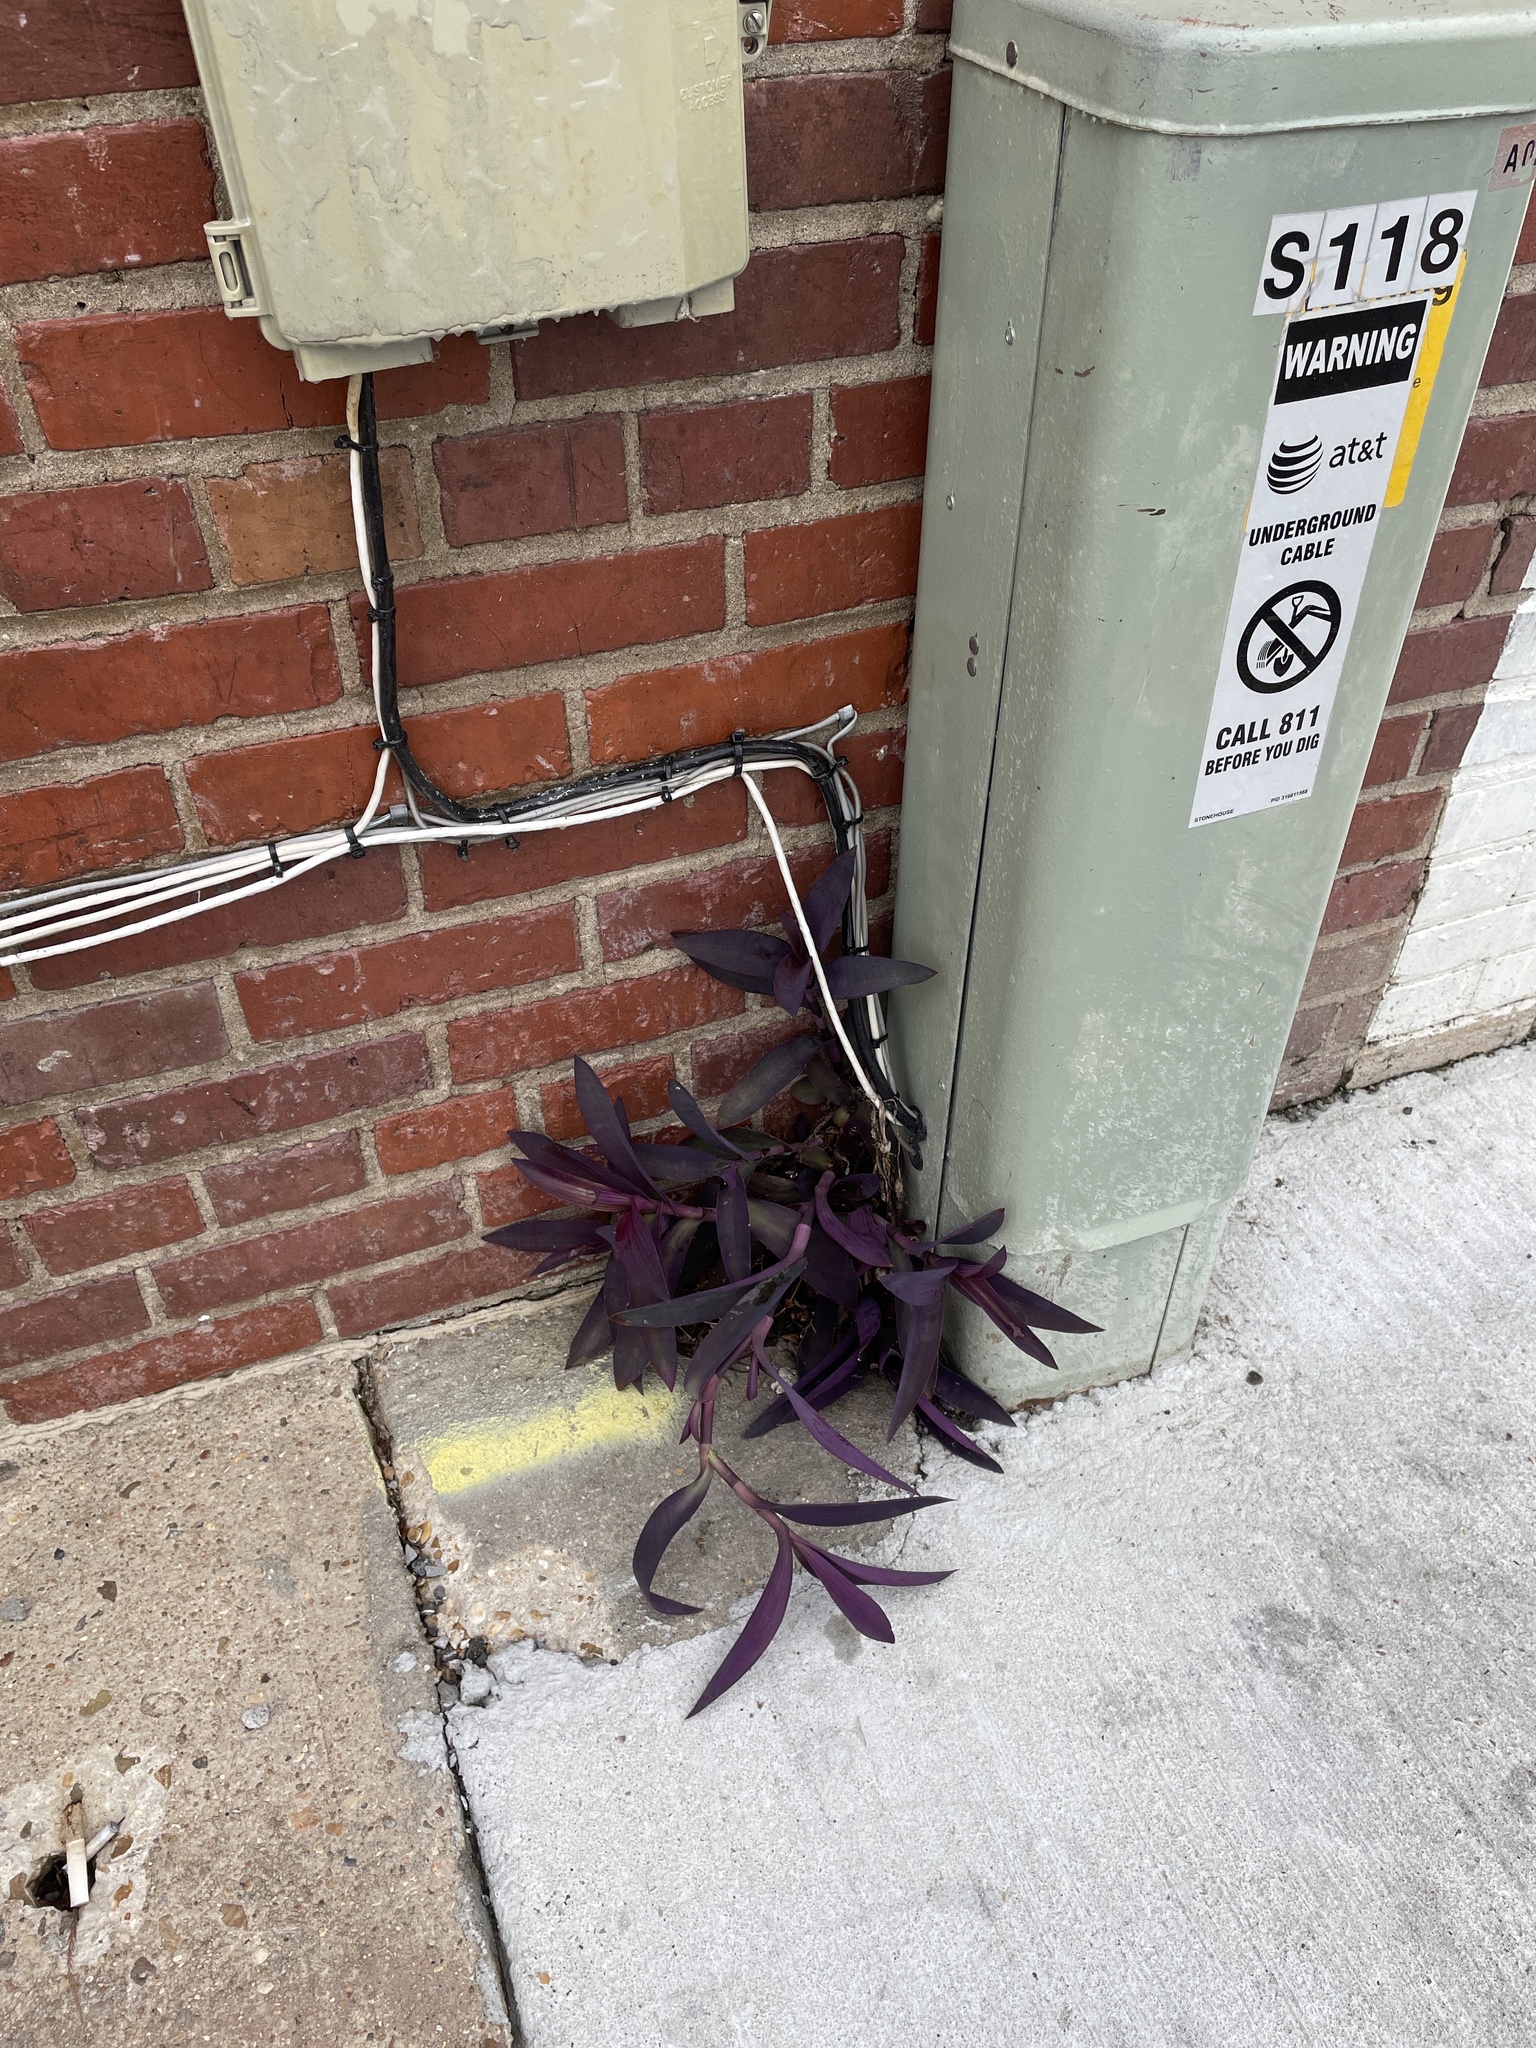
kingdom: Plantae
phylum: Tracheophyta
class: Liliopsida
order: Commelinales
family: Commelinaceae
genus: Tradescantia
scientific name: Tradescantia pallida
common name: Purpleheart
